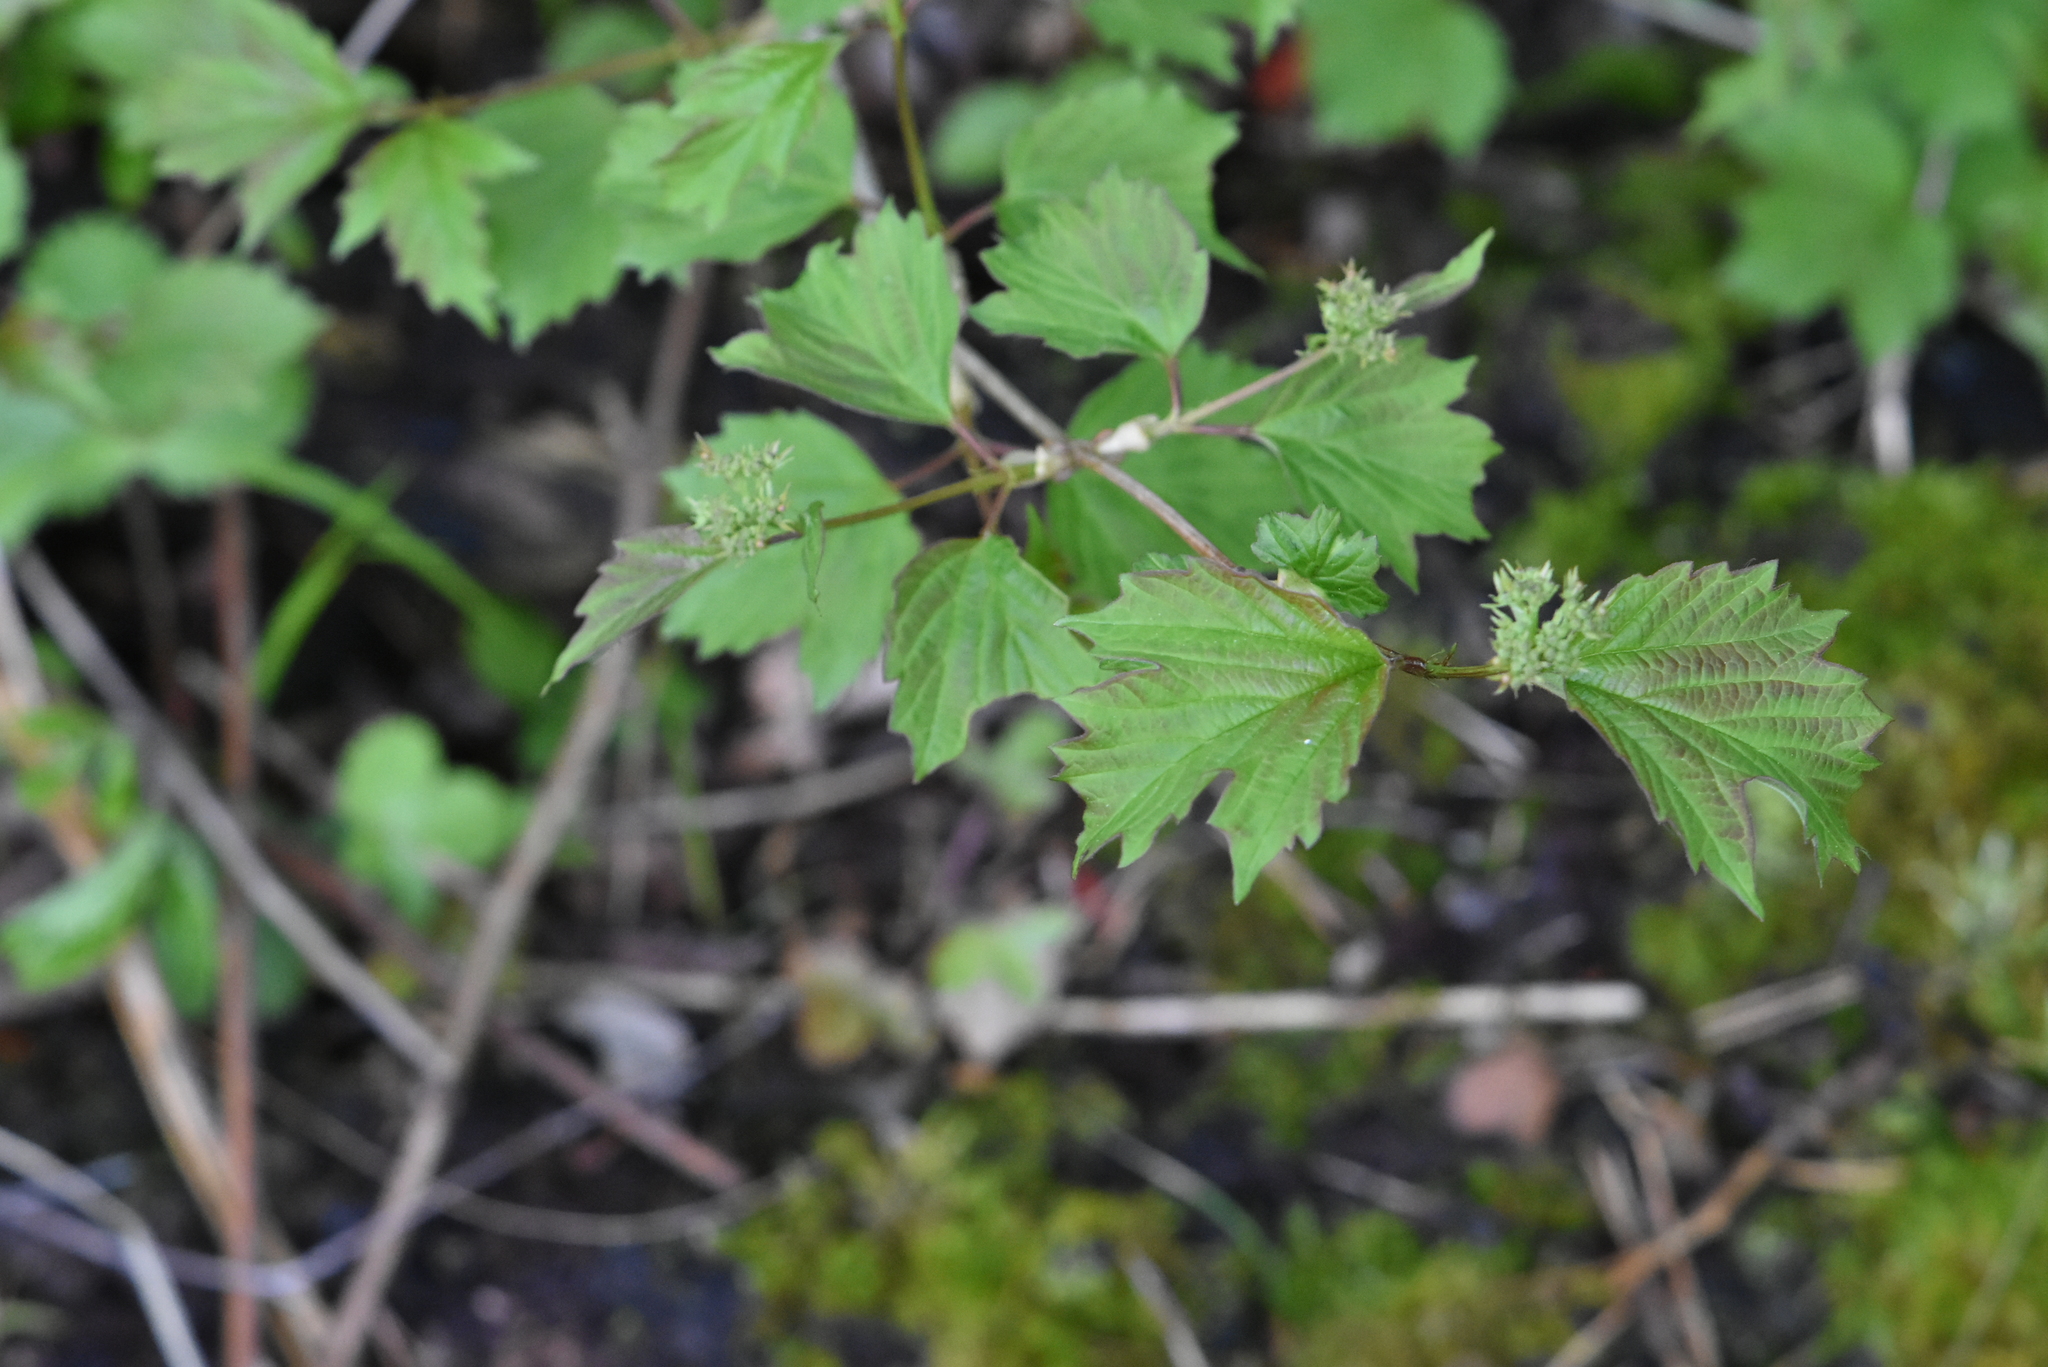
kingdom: Plantae
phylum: Tracheophyta
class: Magnoliopsida
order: Dipsacales
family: Viburnaceae
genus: Viburnum
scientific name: Viburnum opulus
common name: Guelder-rose
